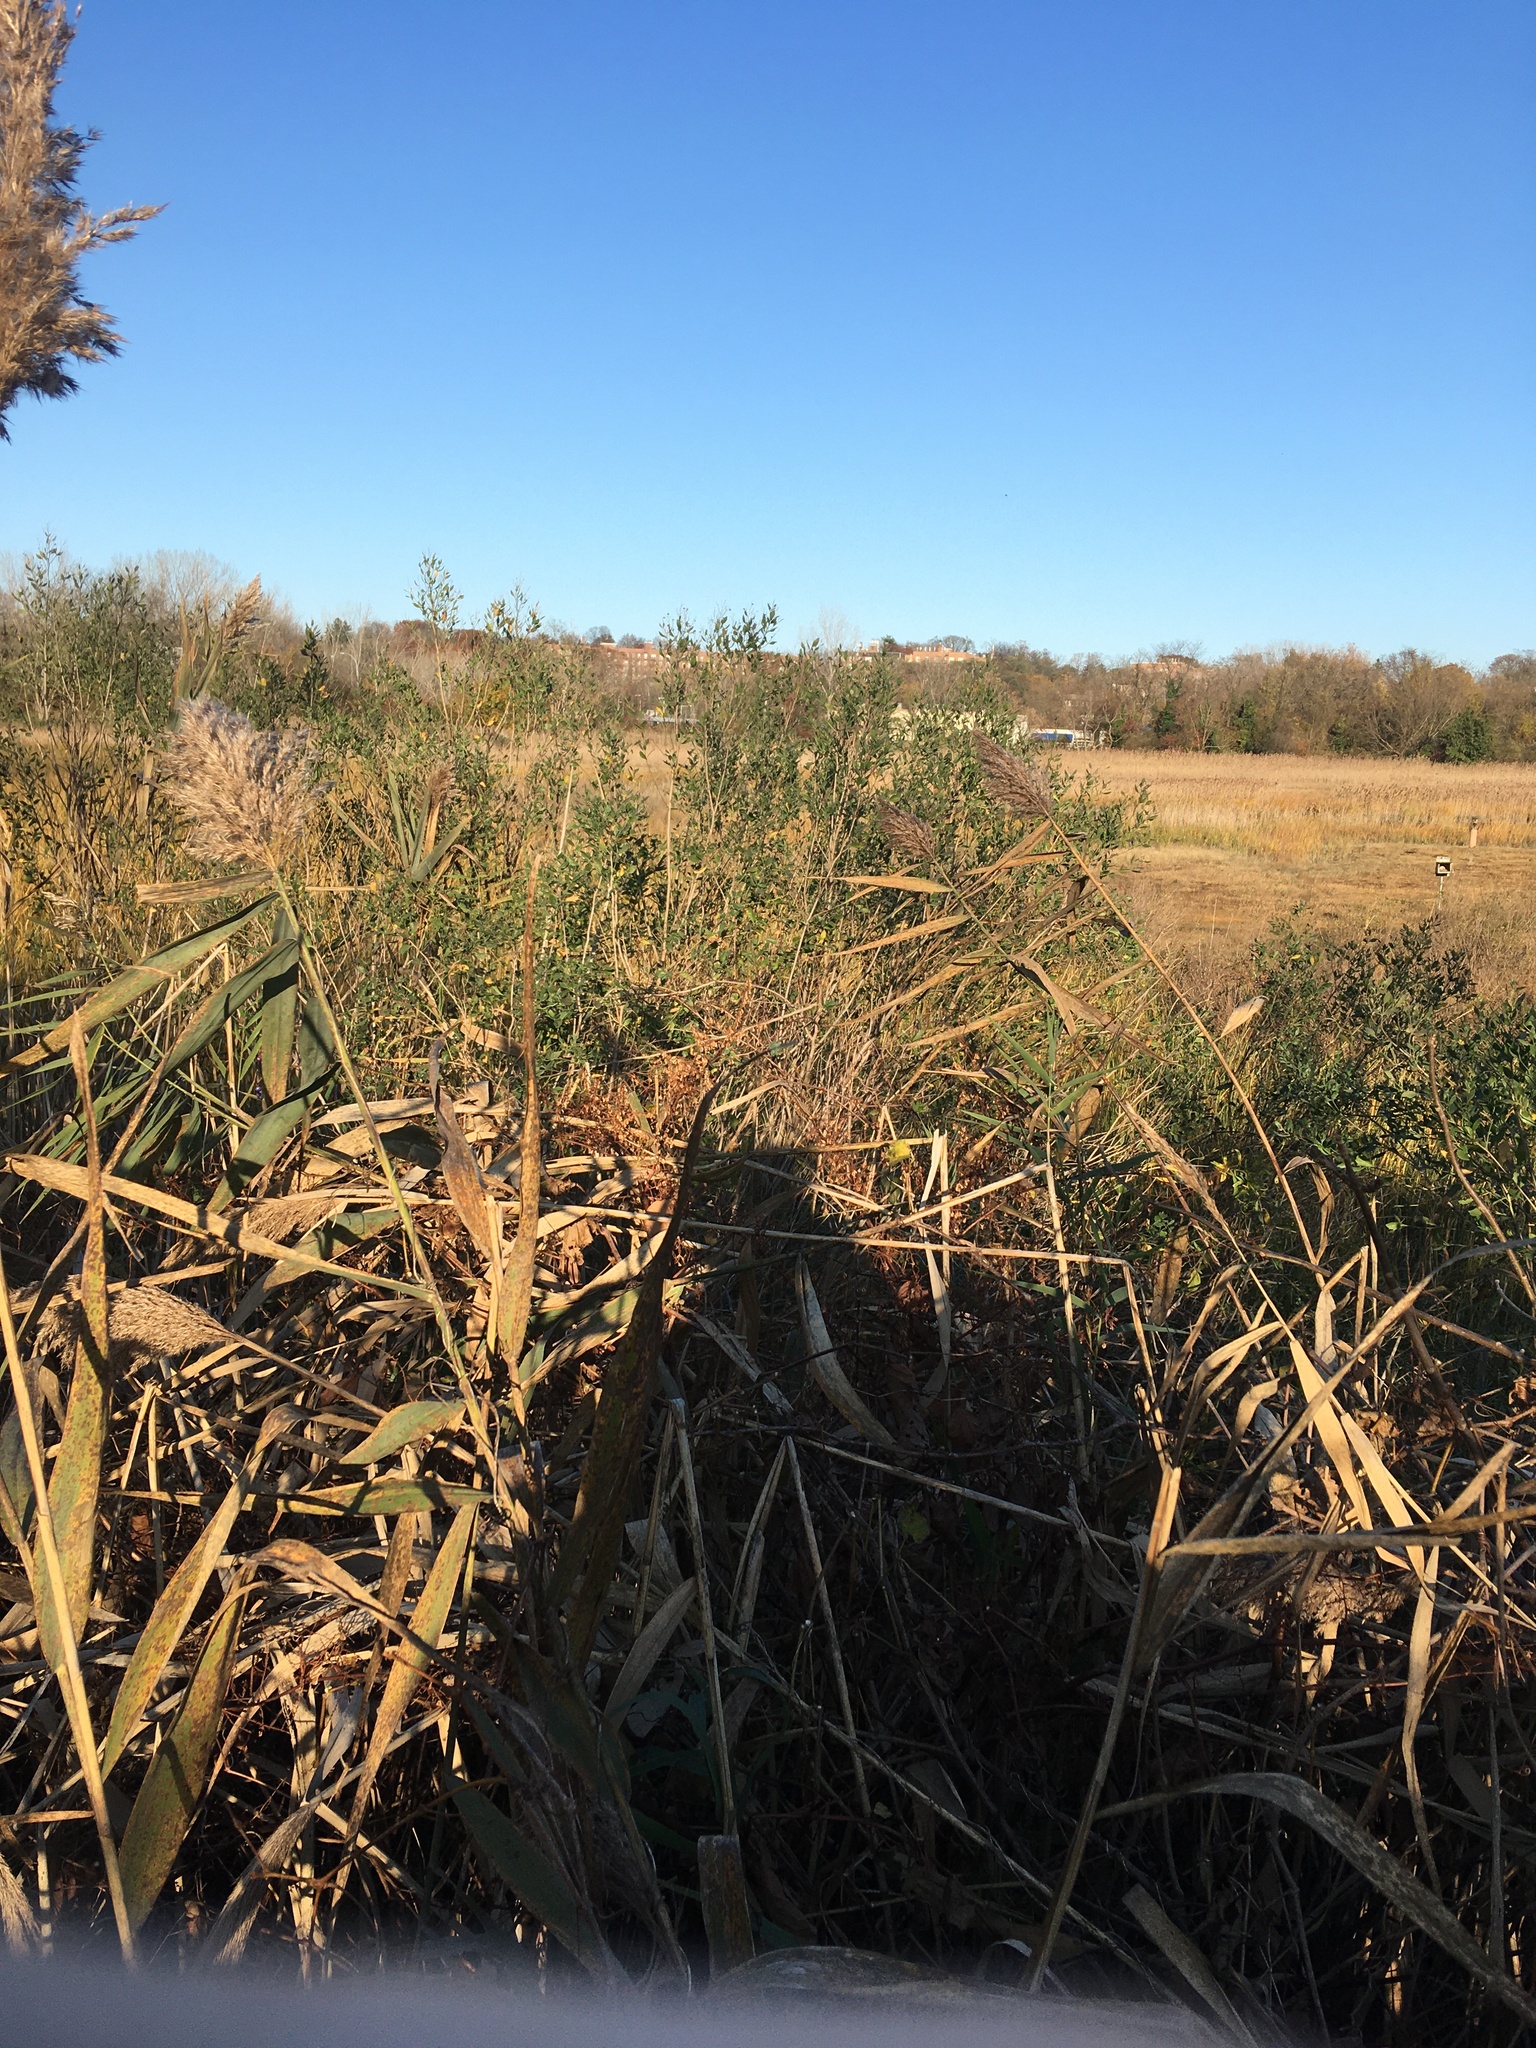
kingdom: Plantae
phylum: Tracheophyta
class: Magnoliopsida
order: Asterales
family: Asteraceae
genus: Baccharis
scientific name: Baccharis halimifolia
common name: Eastern baccharis
